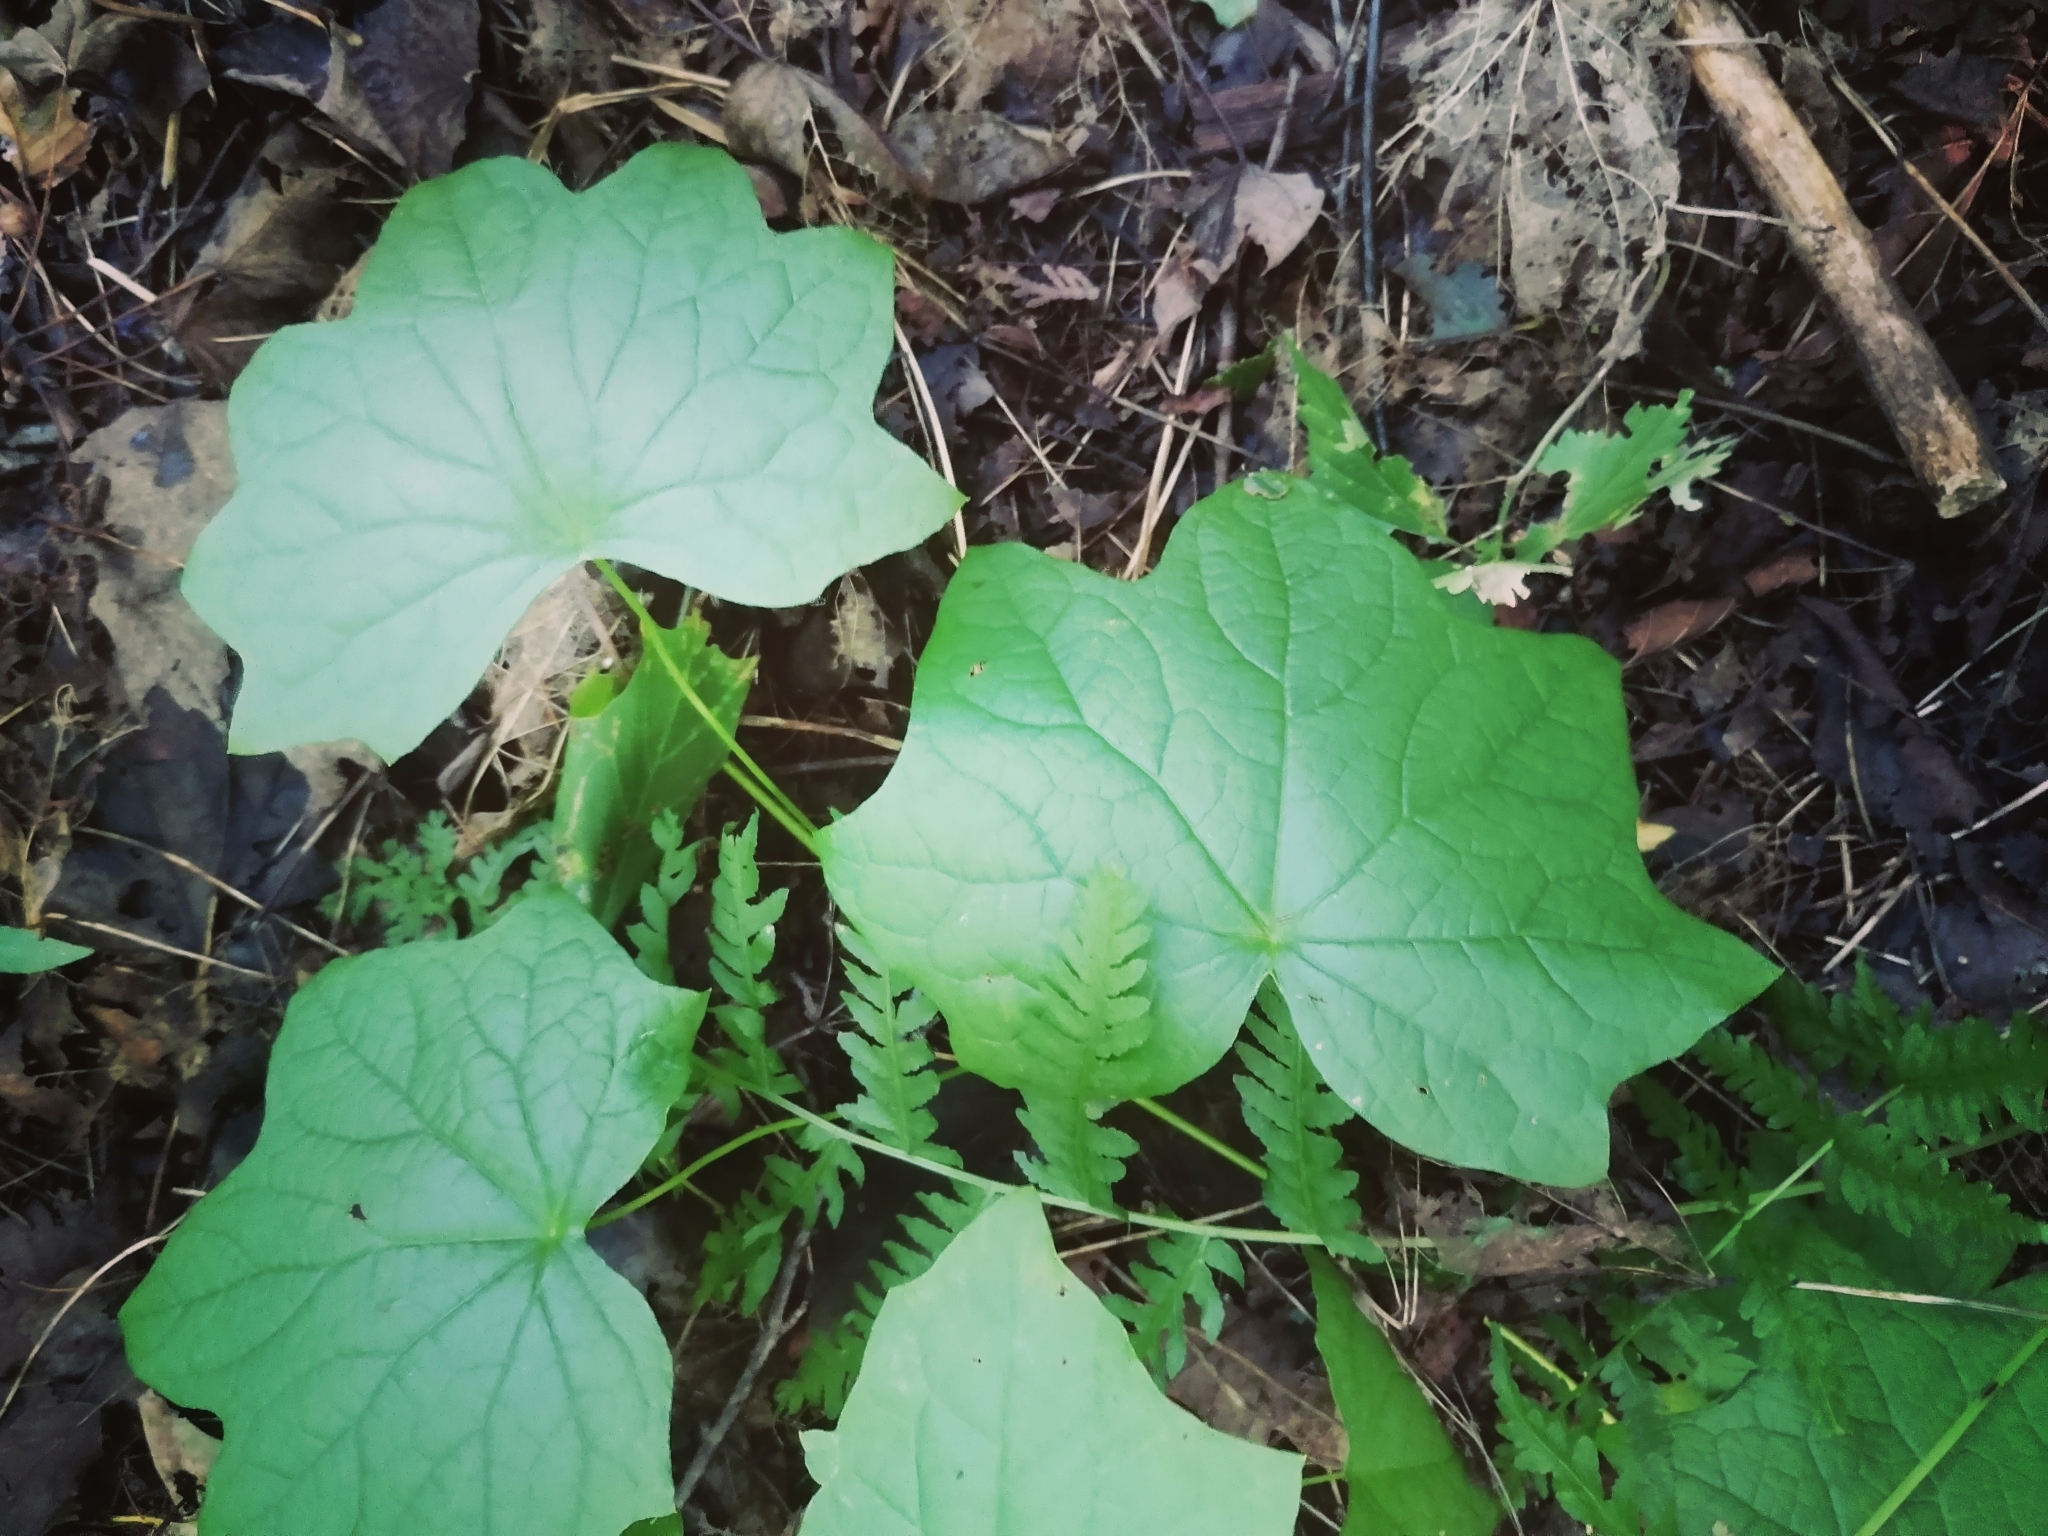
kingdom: Plantae
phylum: Tracheophyta
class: Magnoliopsida
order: Ranunculales
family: Menispermaceae
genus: Menispermum
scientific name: Menispermum canadense
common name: Moonseed
